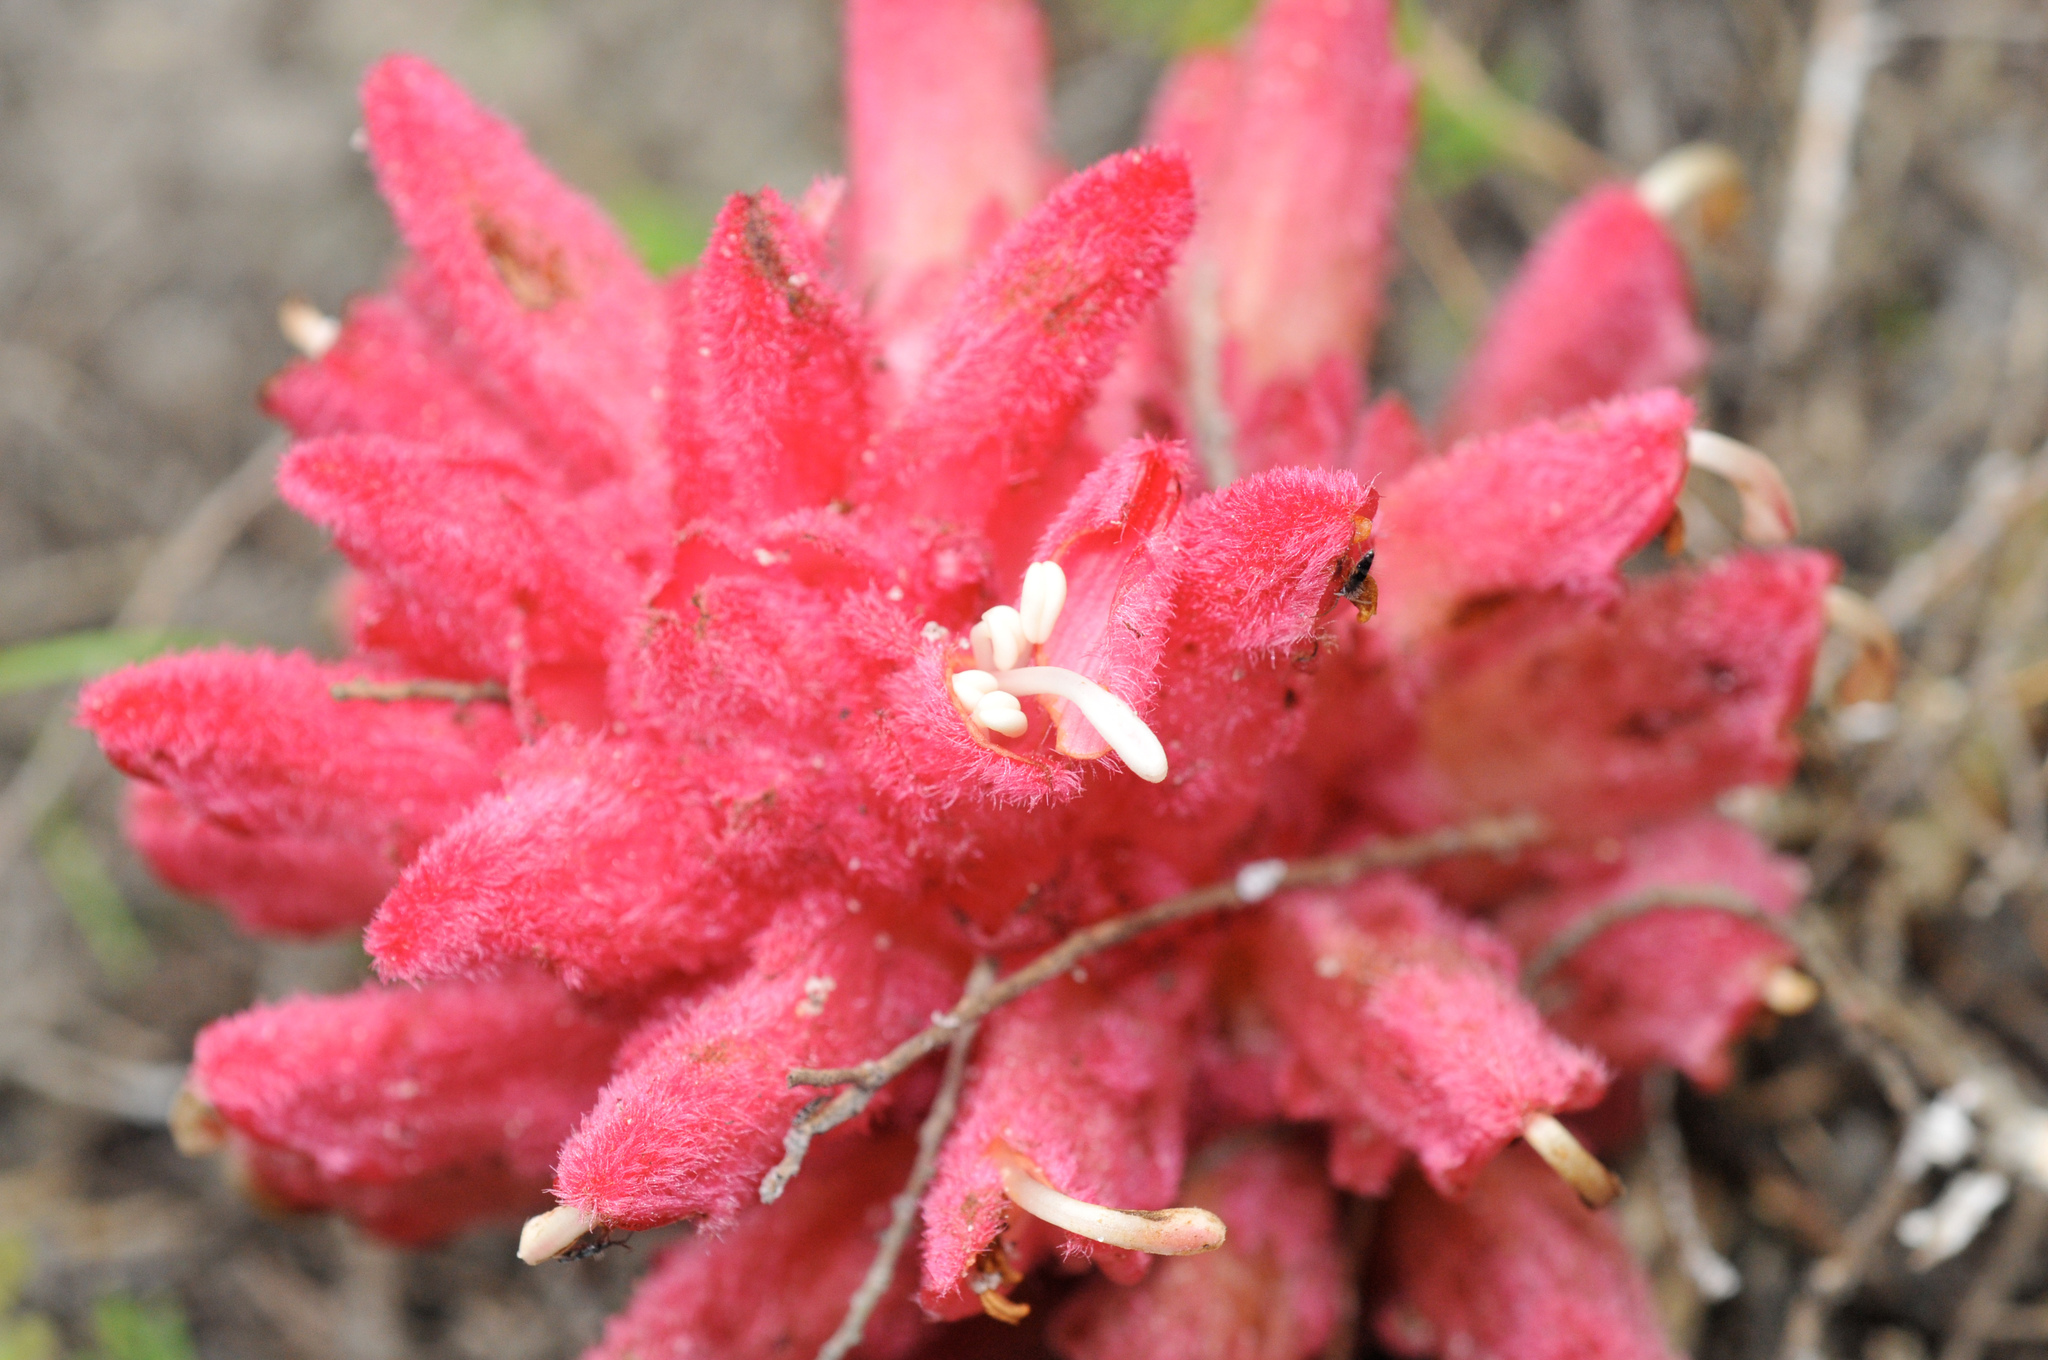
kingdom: Plantae
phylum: Tracheophyta
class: Magnoliopsida
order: Lamiales
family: Orobanchaceae
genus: Hyobanche
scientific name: Hyobanche sanguinea
